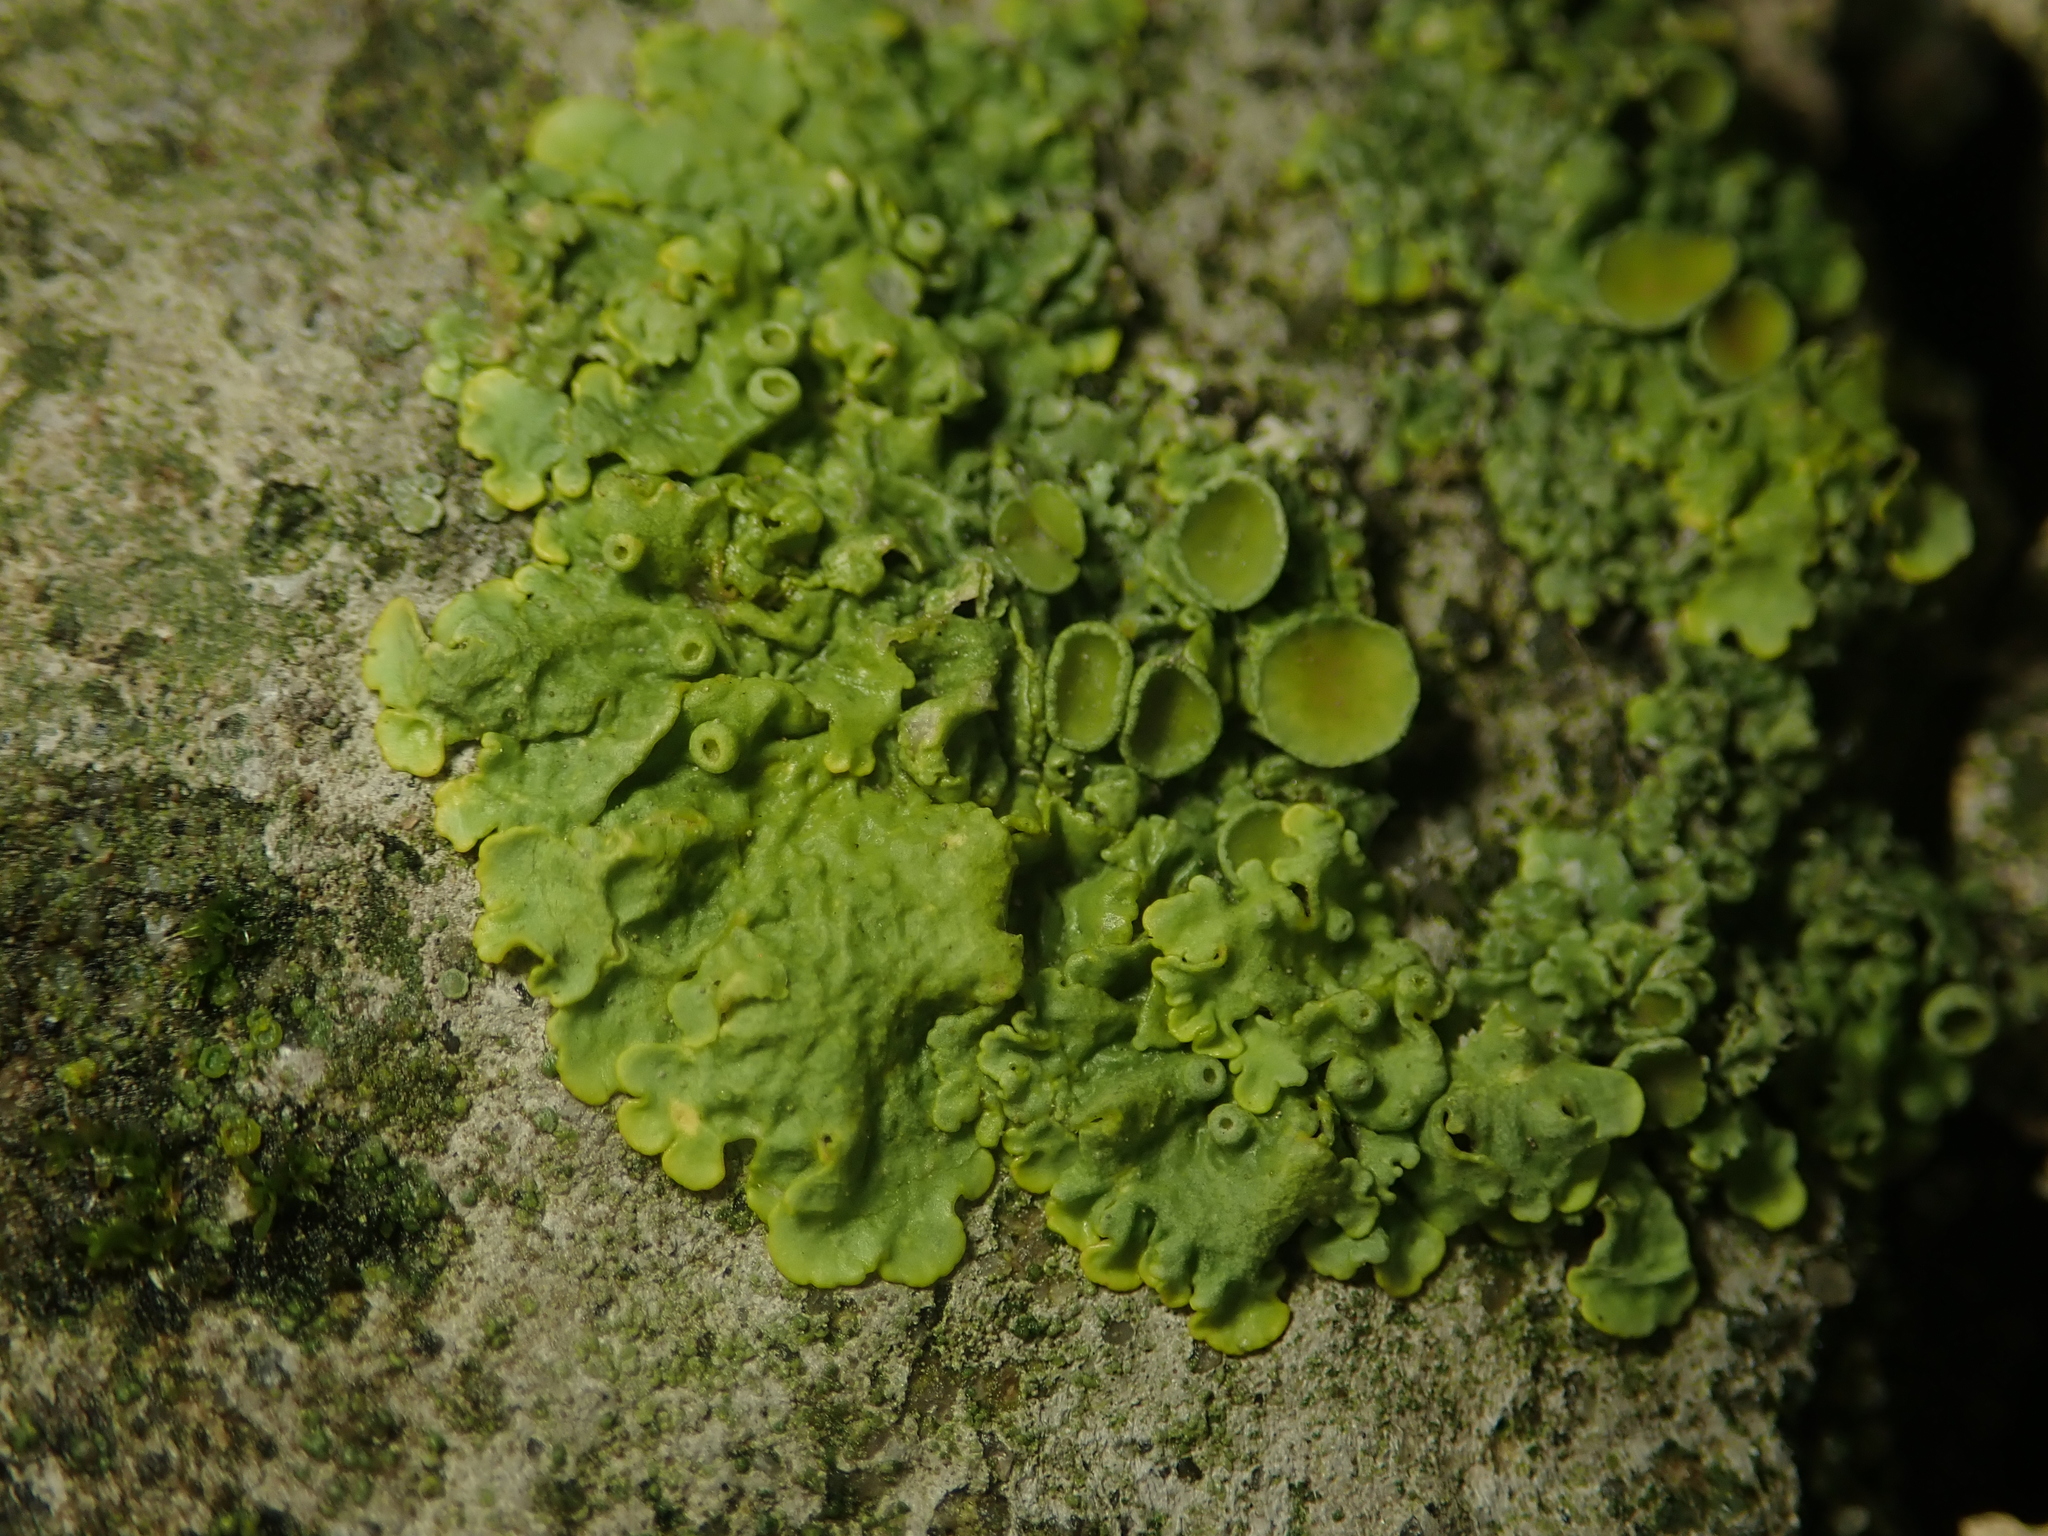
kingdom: Fungi
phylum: Ascomycota
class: Lecanoromycetes
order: Teloschistales
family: Teloschistaceae
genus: Xanthoria
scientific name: Xanthoria parietina
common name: Common orange lichen
